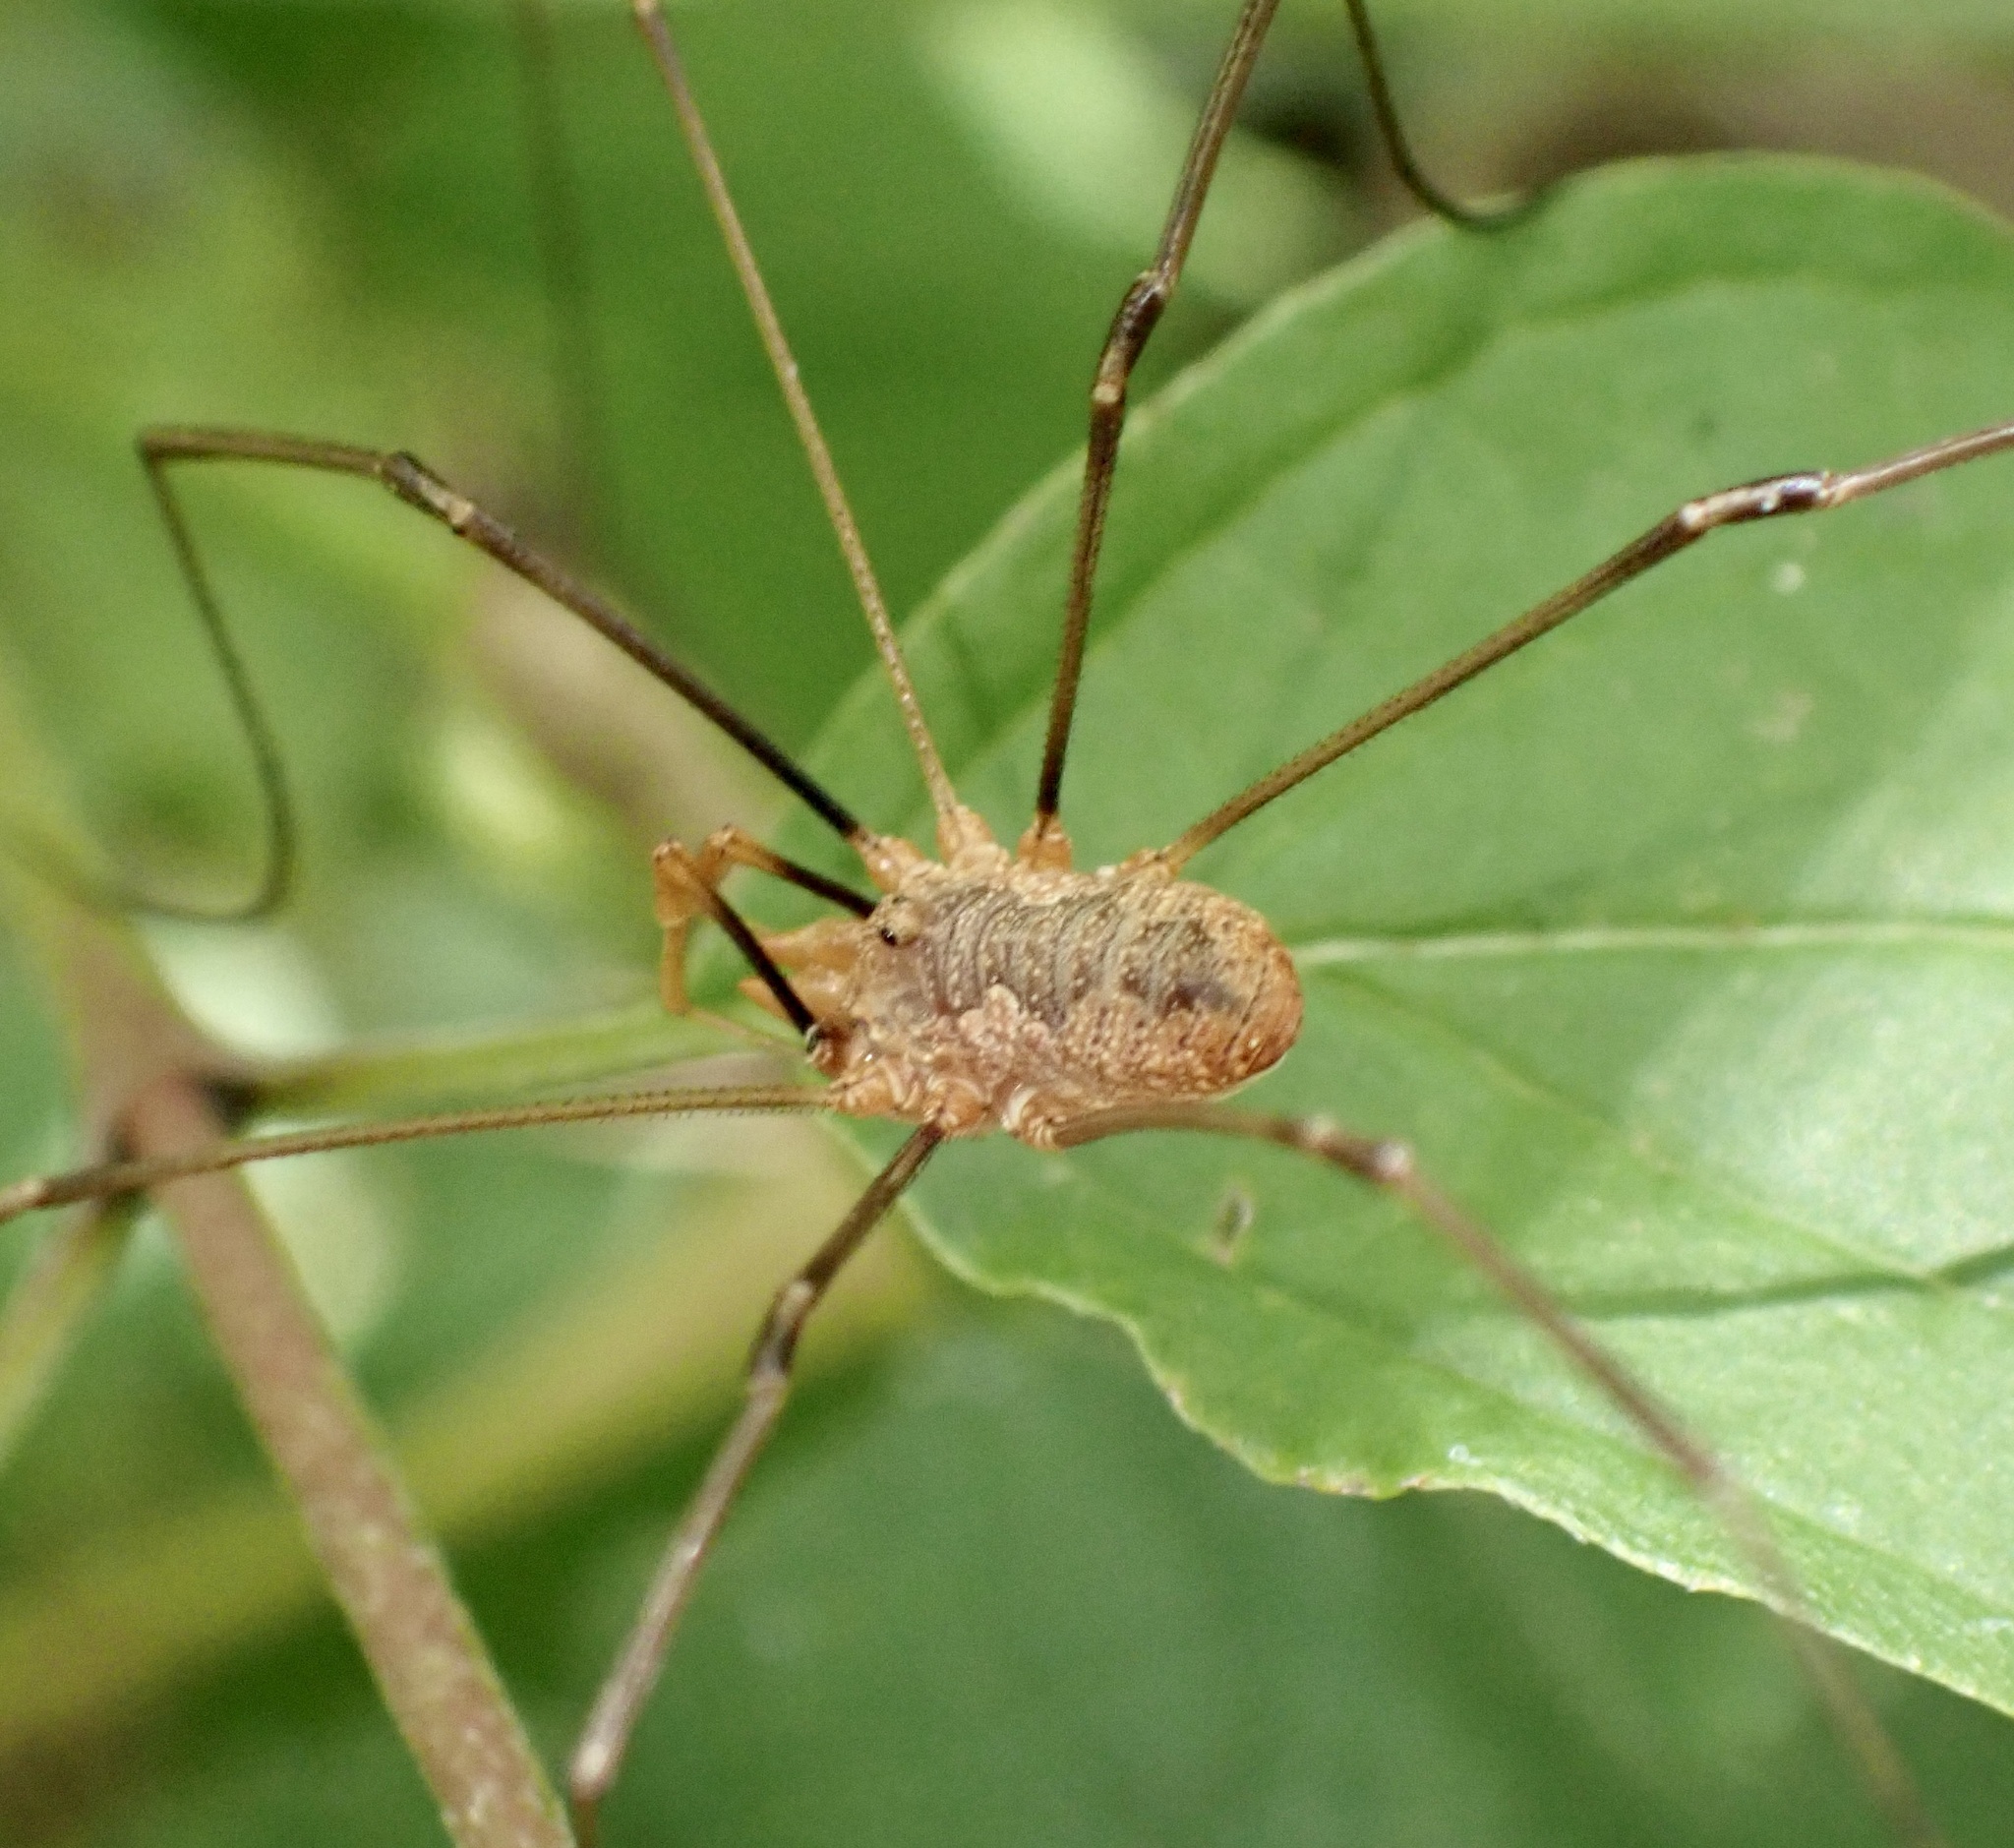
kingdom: Animalia
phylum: Arthropoda
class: Arachnida
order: Opiliones
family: Phalangiidae
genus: Phalangium
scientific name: Phalangium opilio
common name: Daddy longleg
